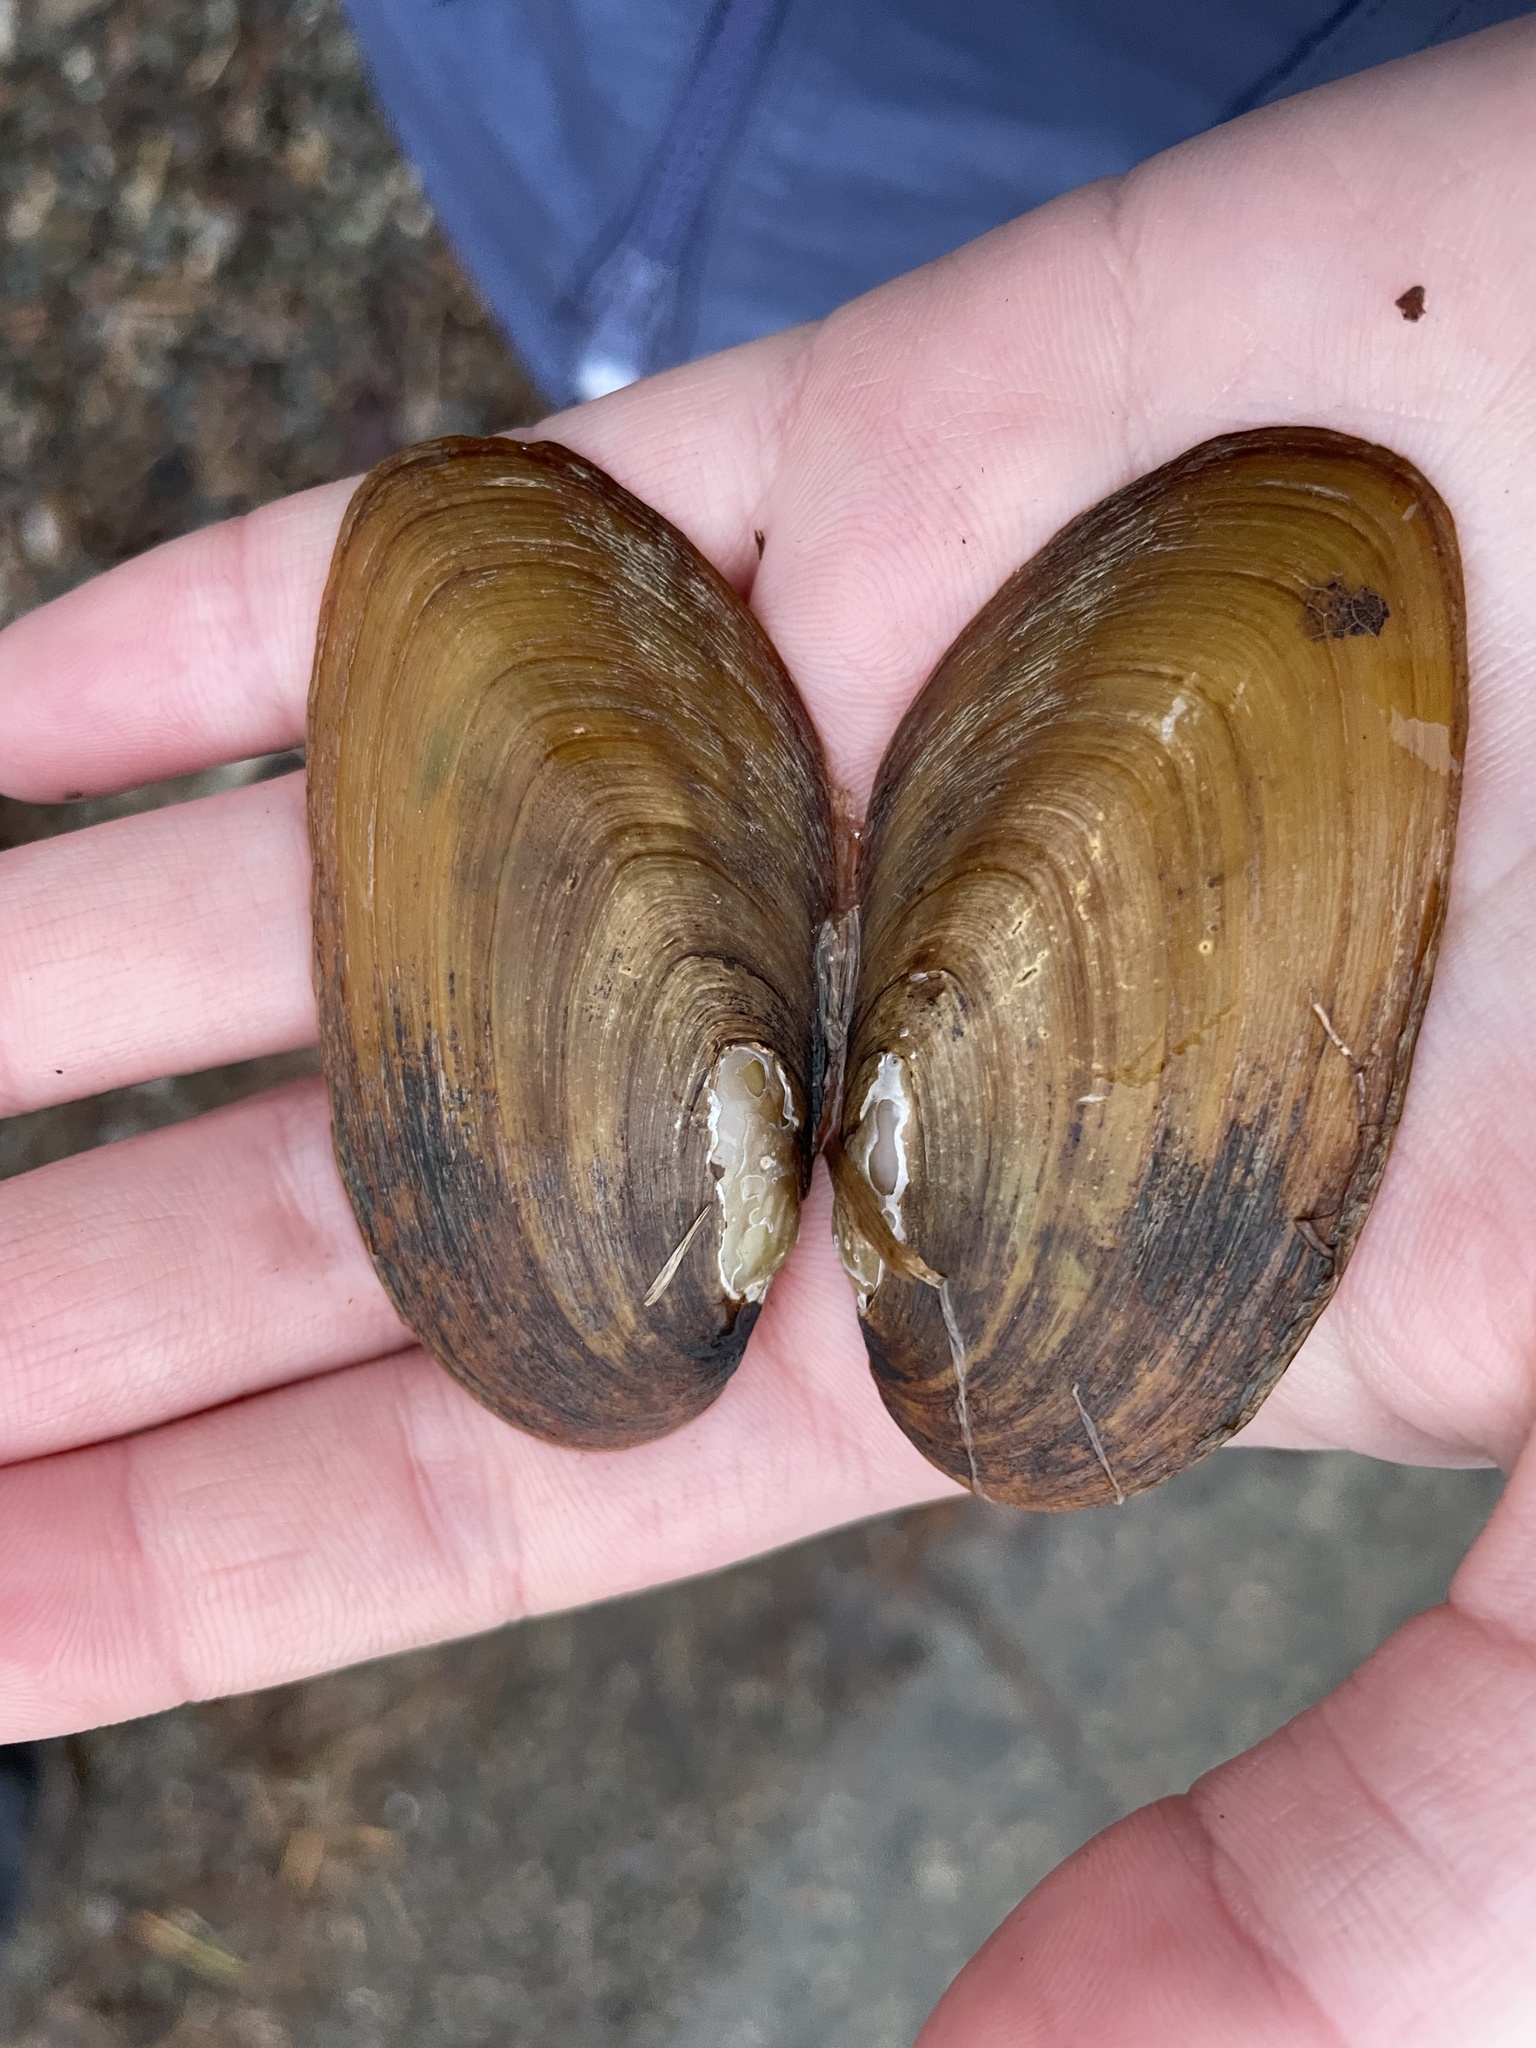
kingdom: Animalia
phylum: Mollusca
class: Bivalvia
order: Unionida
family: Unionidae
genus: Elliptio
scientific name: Elliptio complanata
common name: Eastern elliptio
